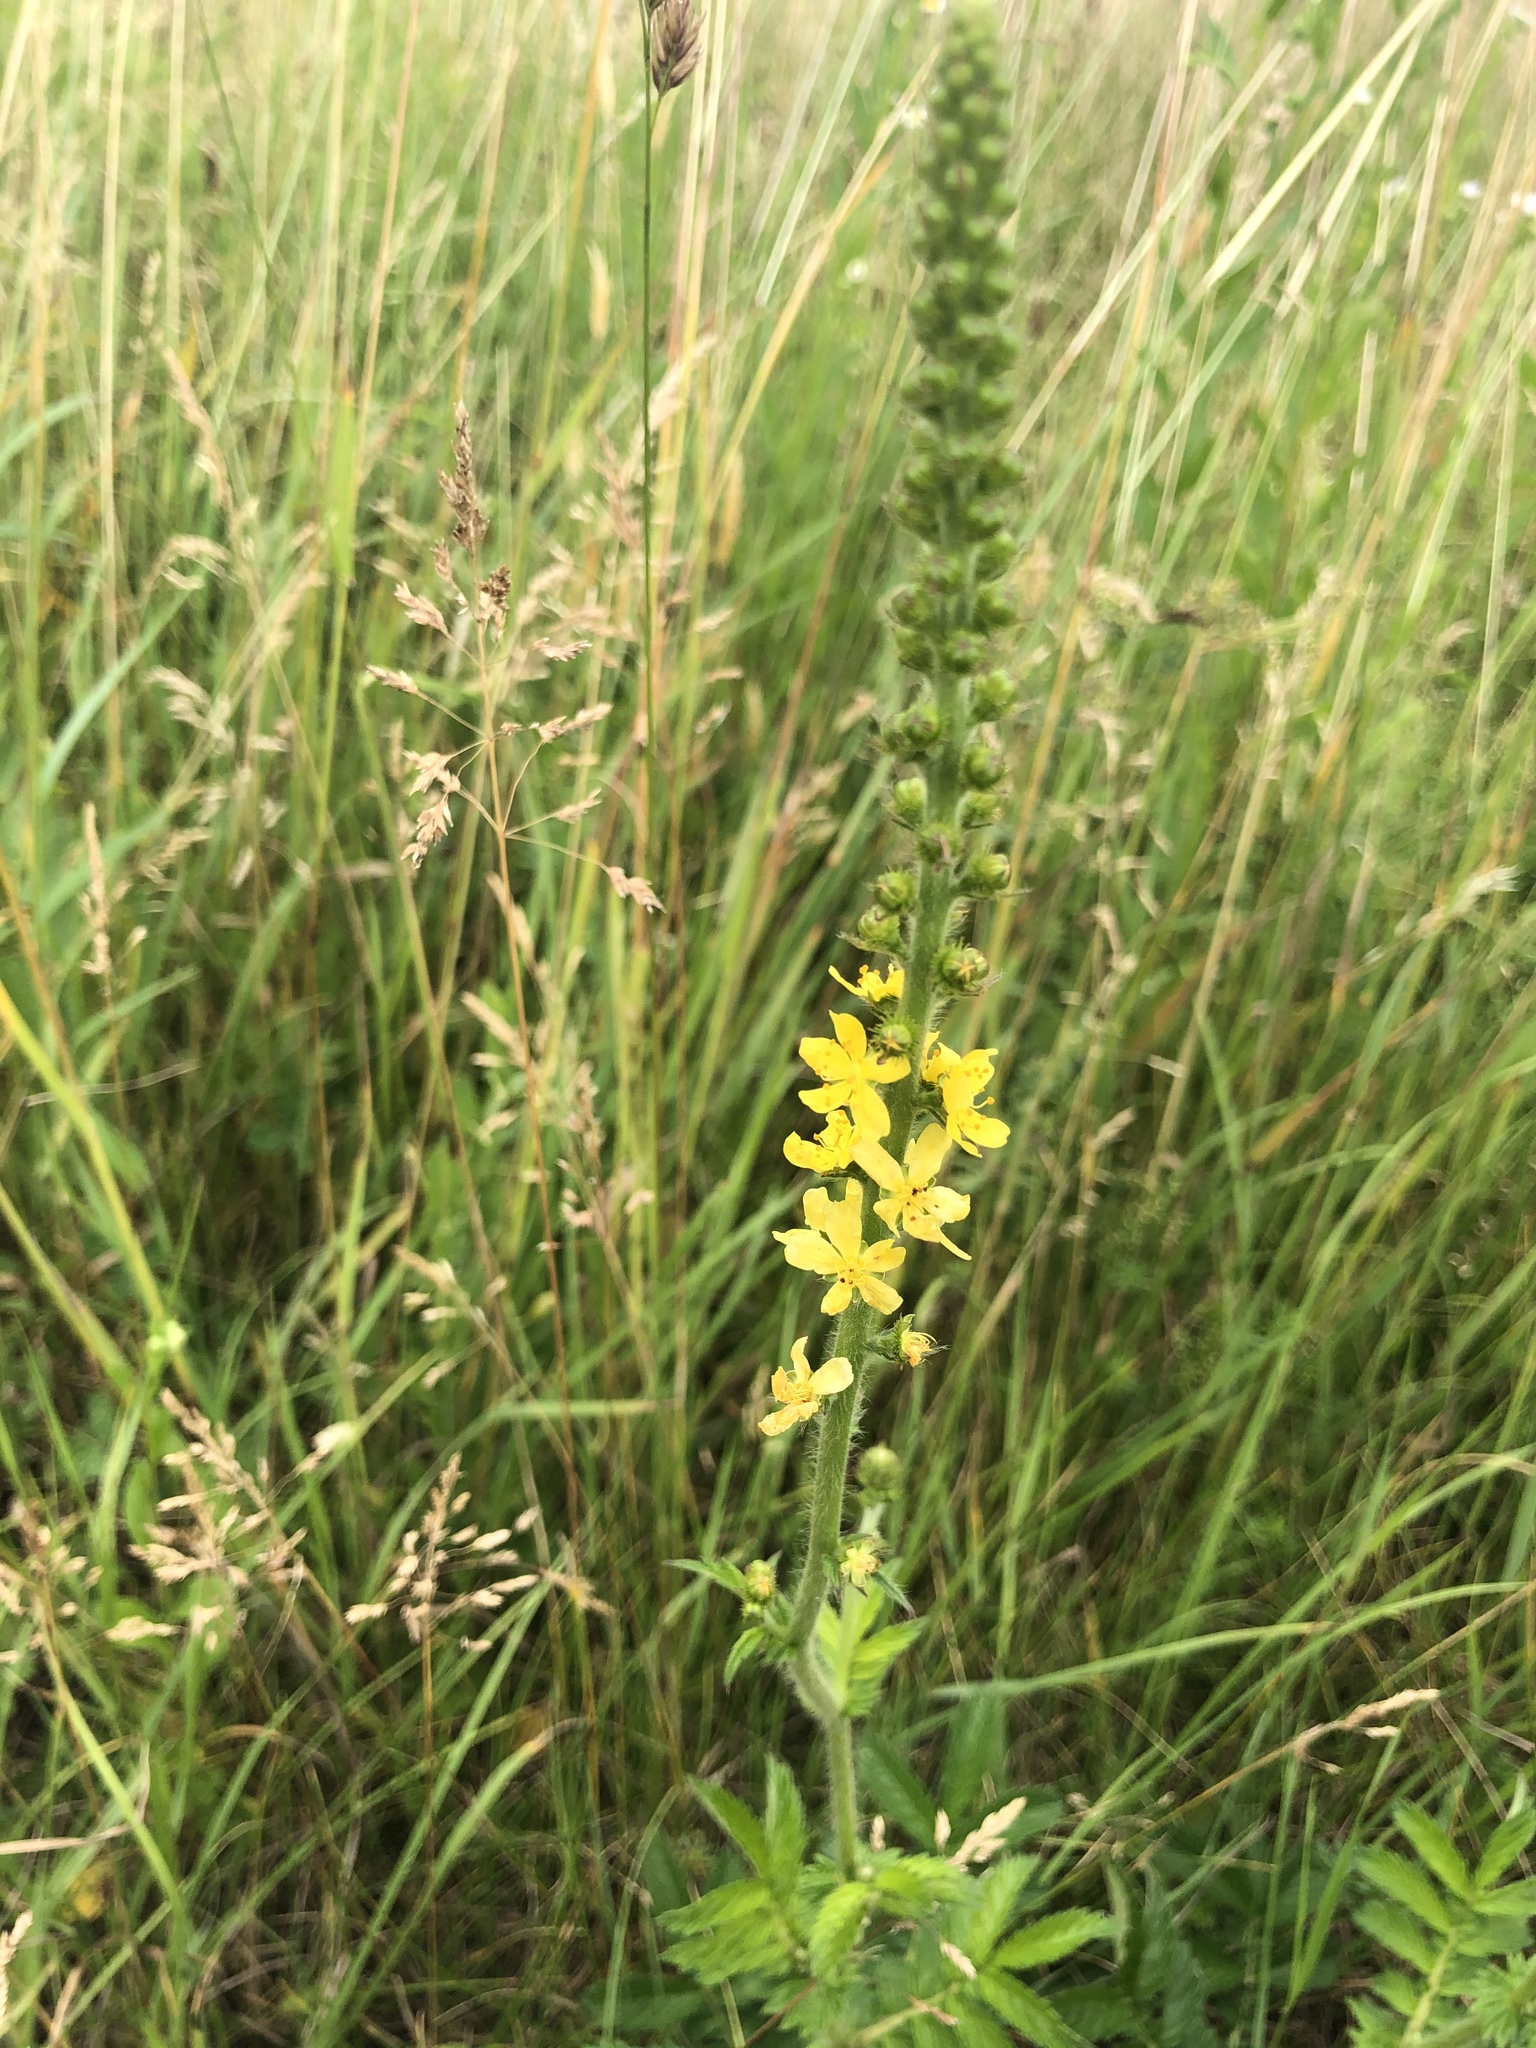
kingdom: Plantae
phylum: Tracheophyta
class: Magnoliopsida
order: Rosales
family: Rosaceae
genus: Agrimonia
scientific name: Agrimonia eupatoria
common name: Agrimony
